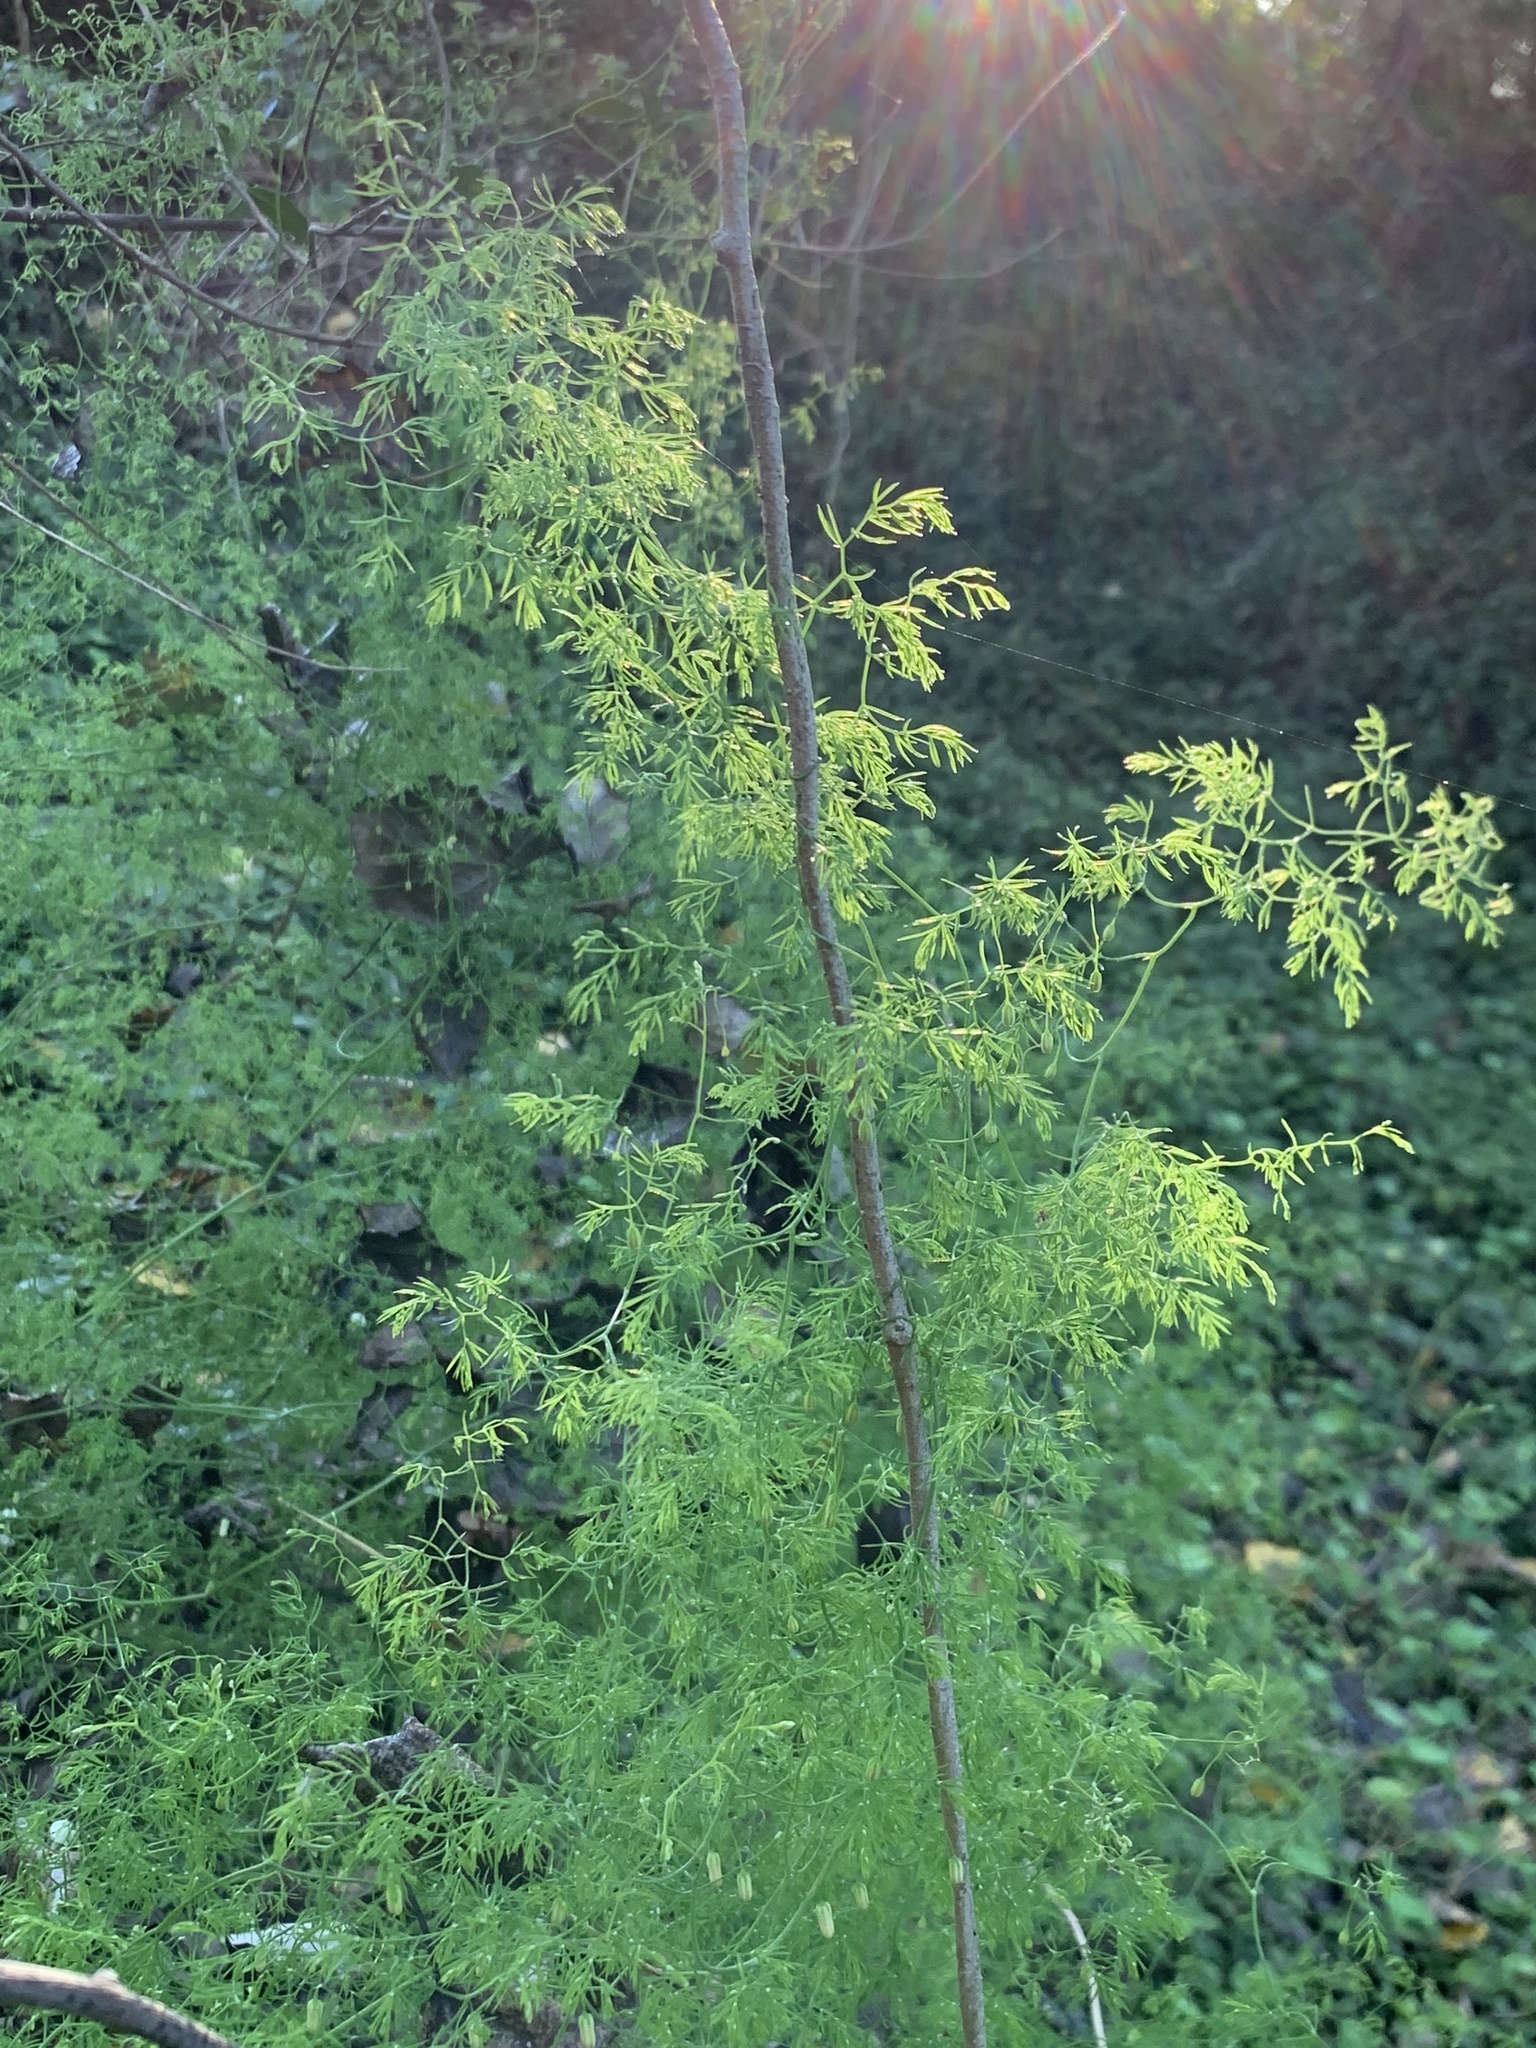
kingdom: Plantae
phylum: Tracheophyta
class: Liliopsida
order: Asparagales
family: Asparagaceae
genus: Asparagus
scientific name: Asparagus declinatus
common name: Bridal-creeper
